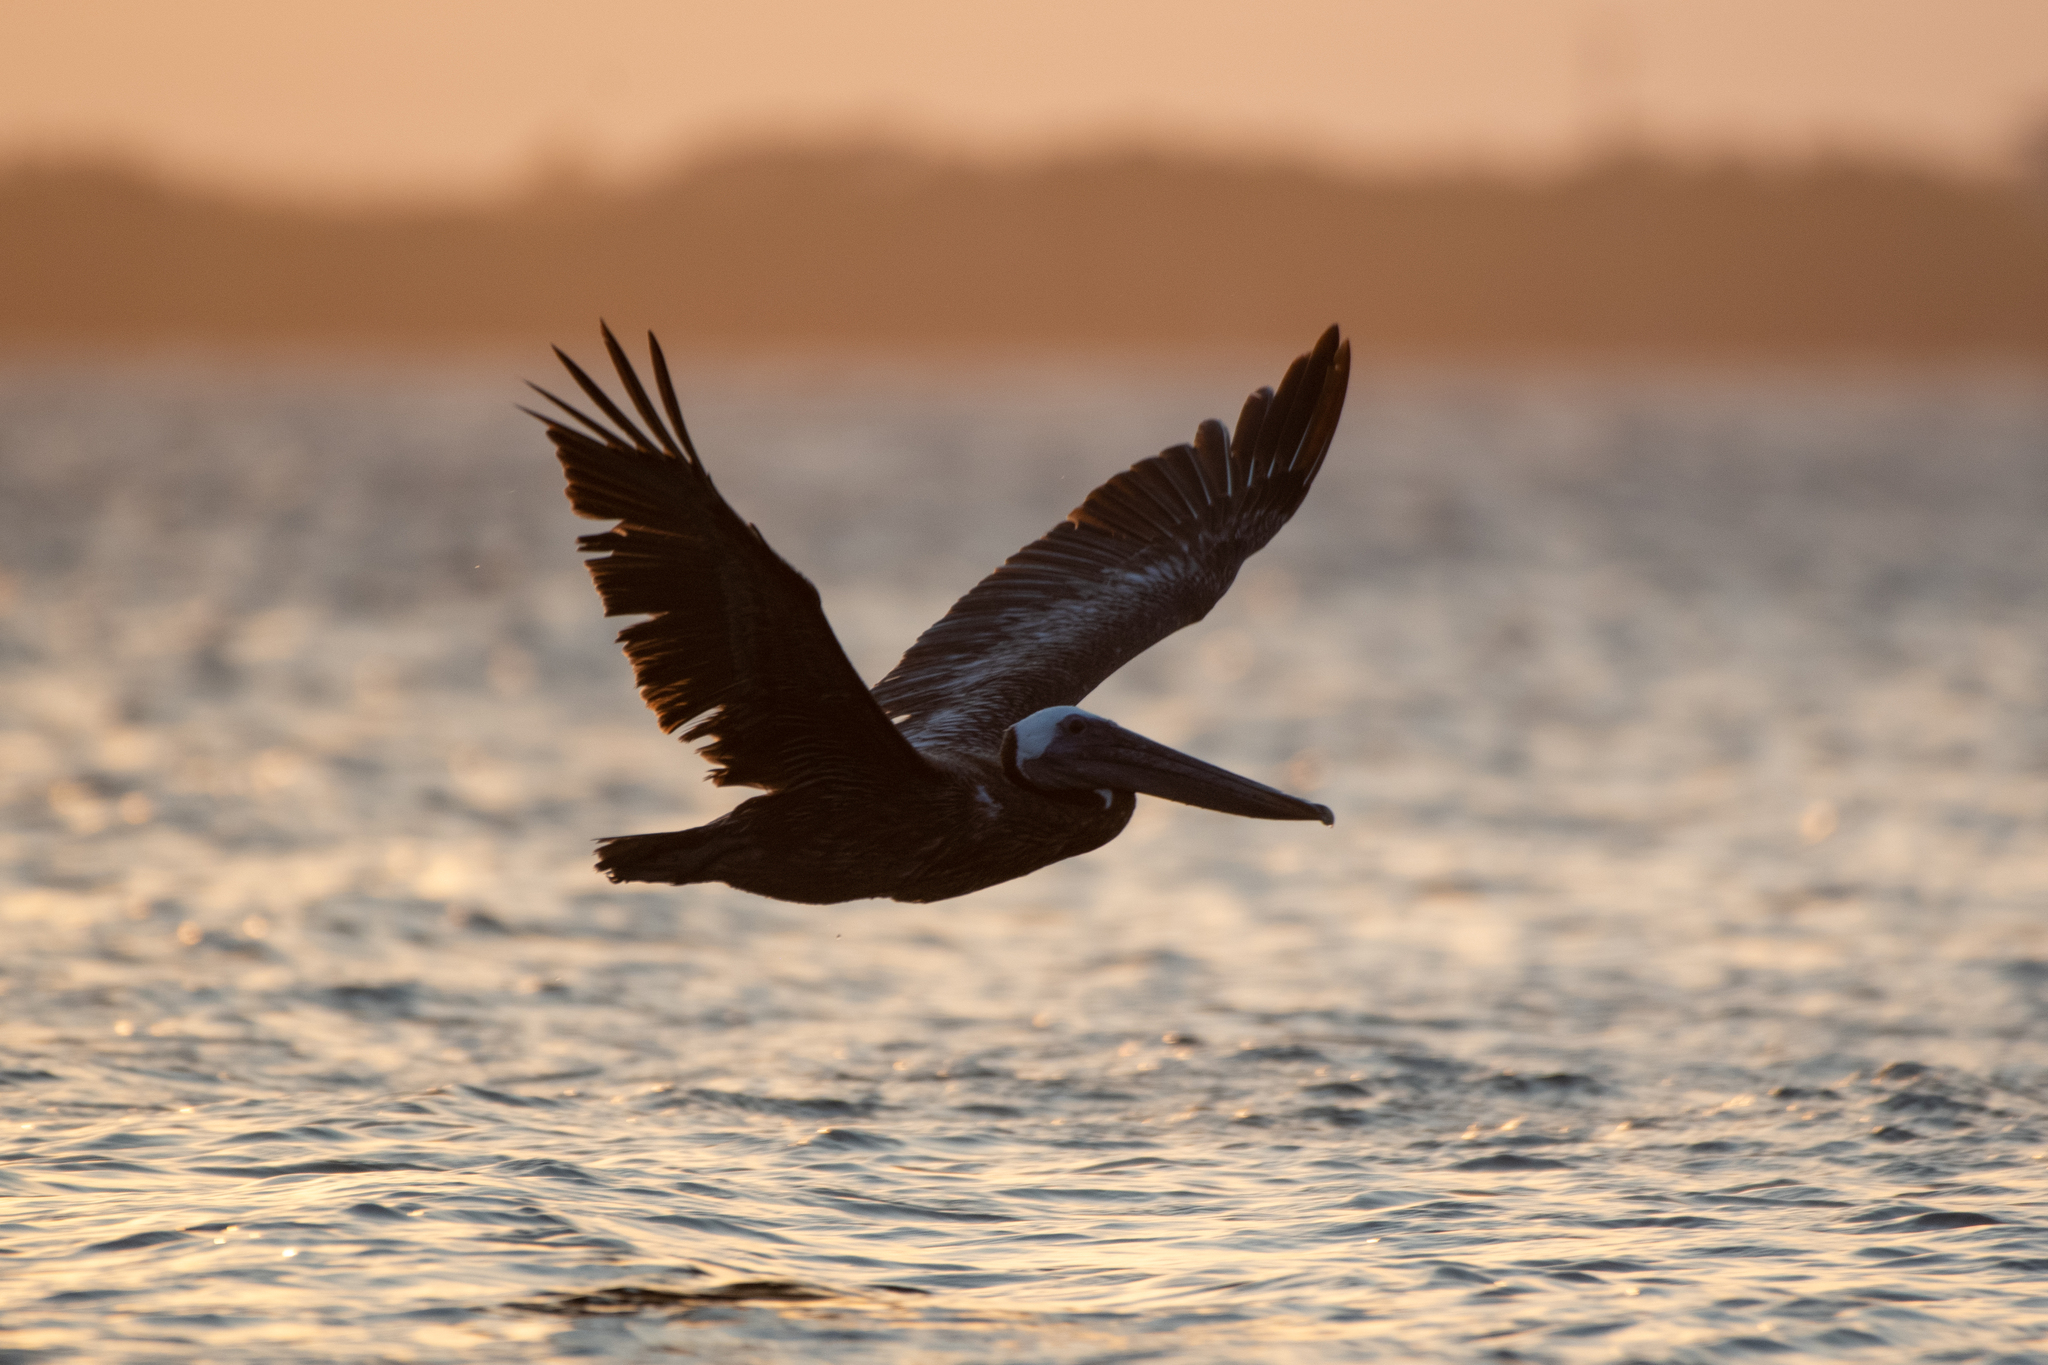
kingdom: Animalia
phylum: Chordata
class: Aves
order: Pelecaniformes
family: Pelecanidae
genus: Pelecanus
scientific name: Pelecanus occidentalis
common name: Brown pelican
